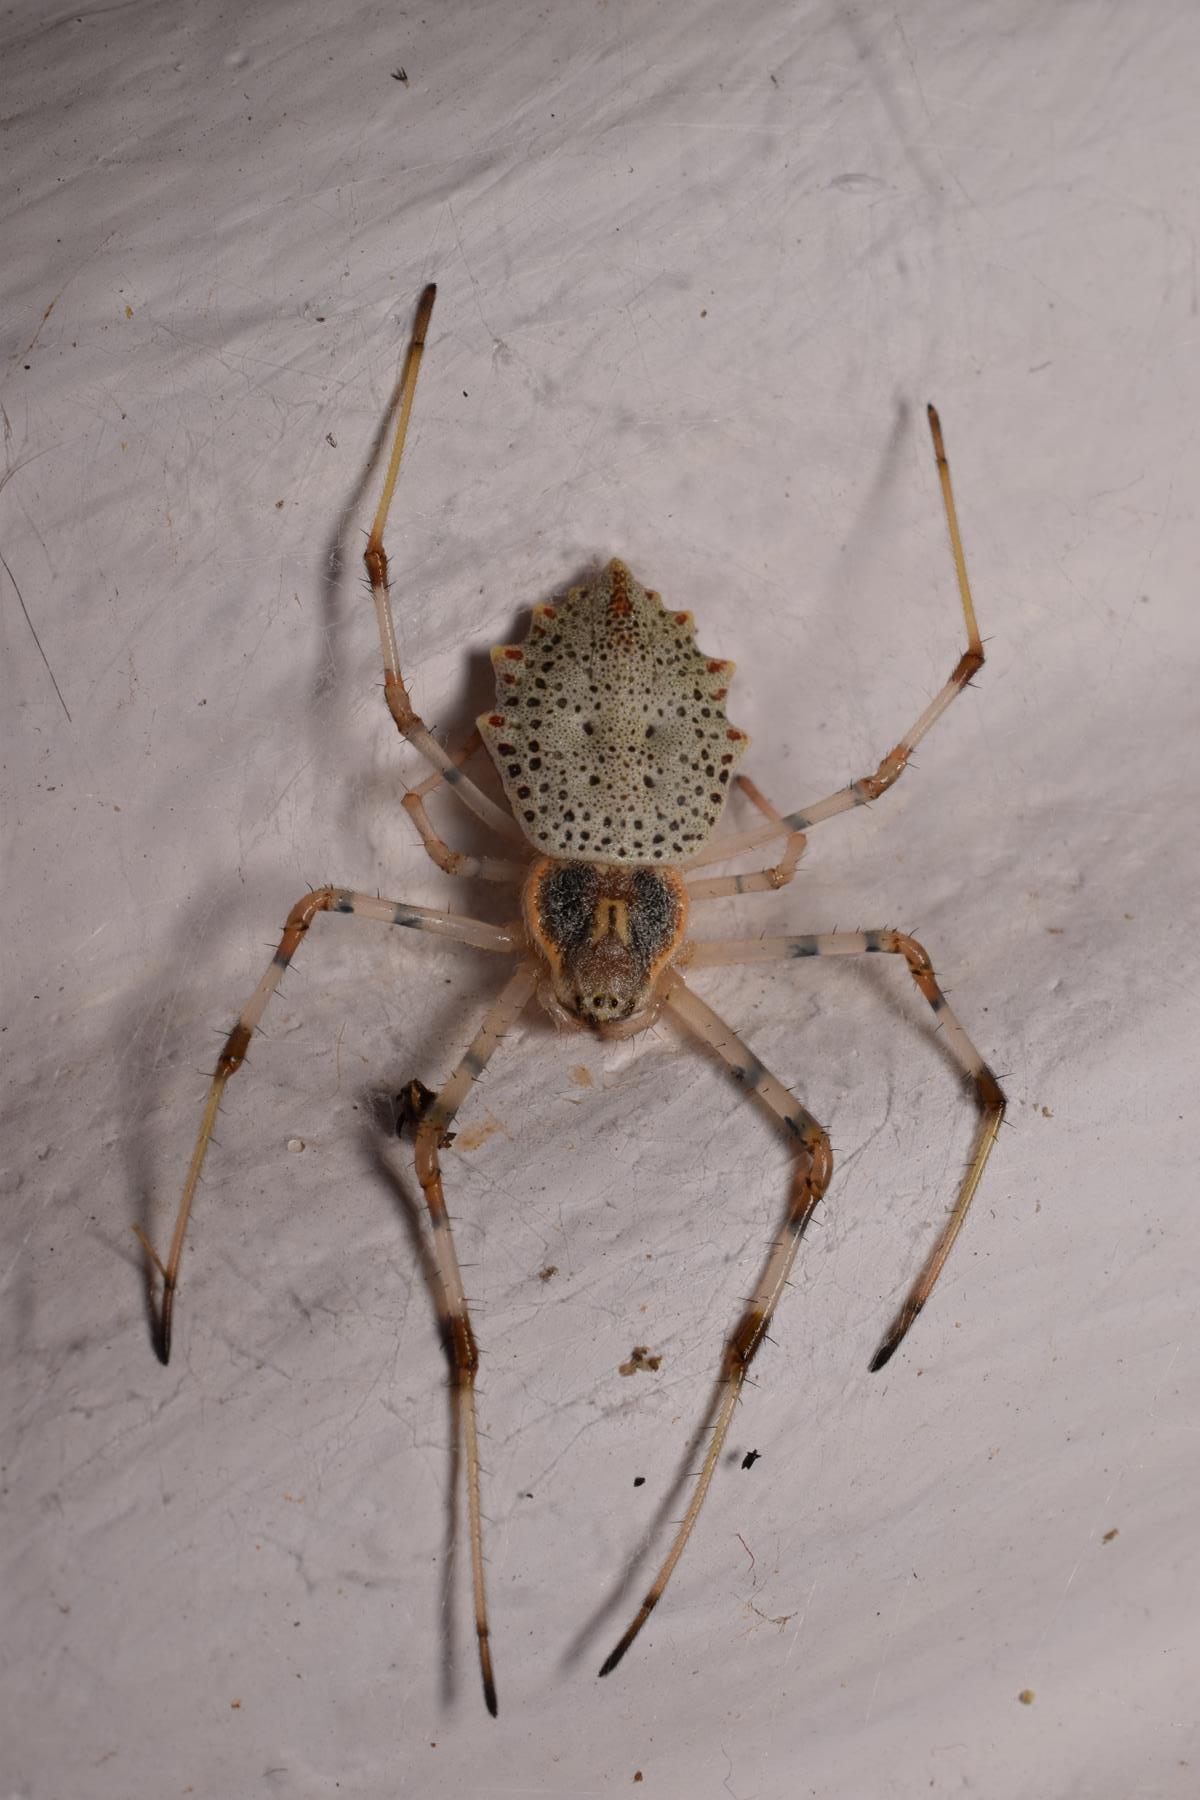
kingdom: Animalia
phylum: Arthropoda
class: Arachnida
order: Araneae
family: Araneidae
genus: Herennia
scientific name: Herennia multipuncta
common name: Spotted coin spider
